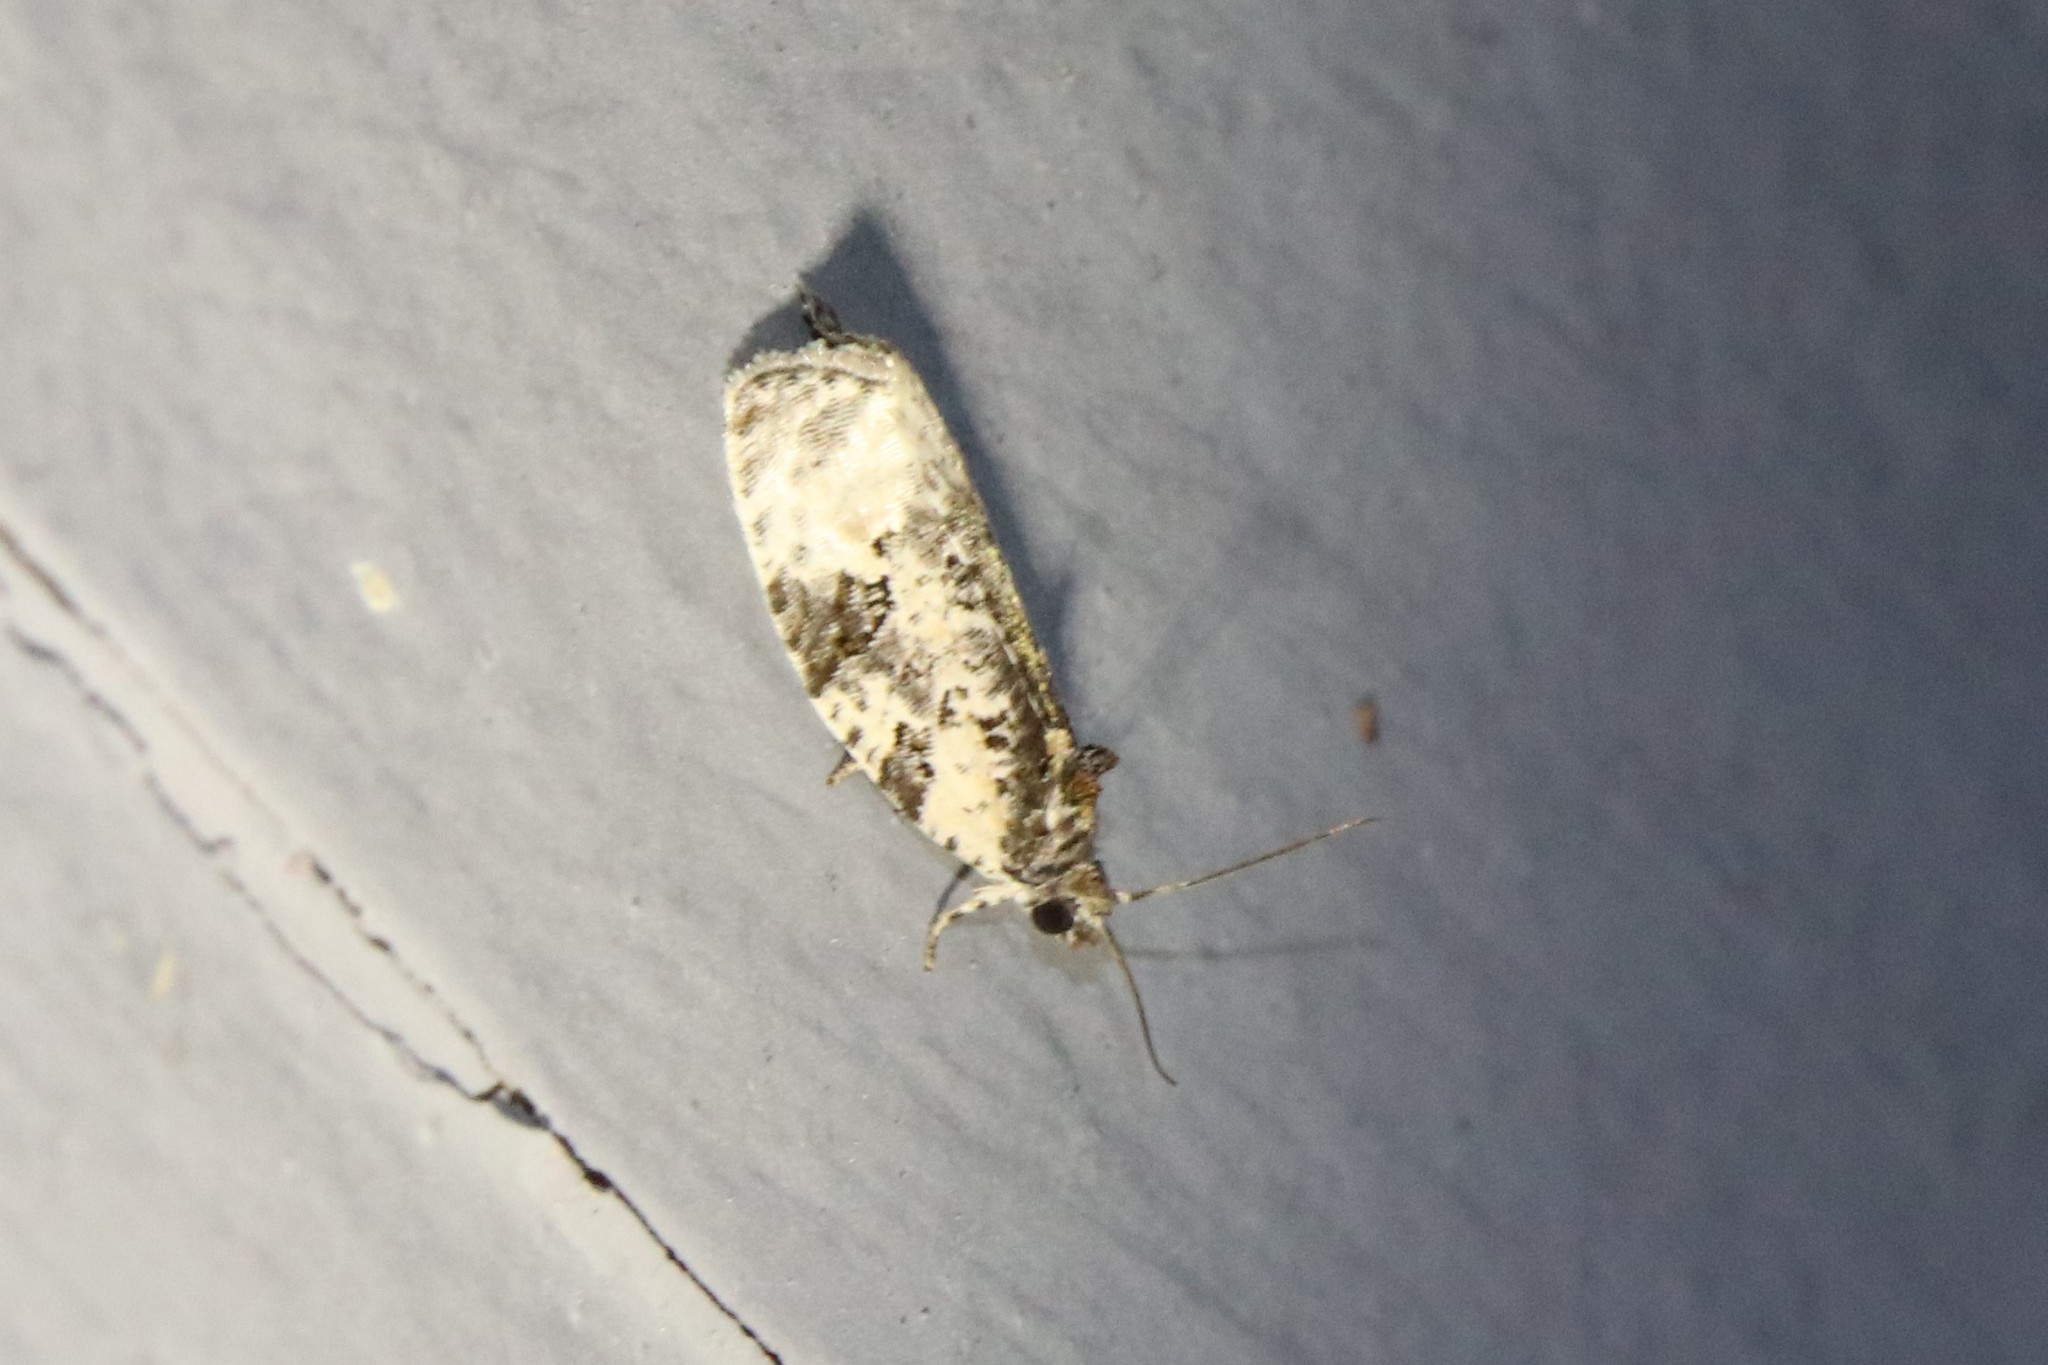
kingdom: Animalia
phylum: Arthropoda
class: Insecta
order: Lepidoptera
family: Tortricidae
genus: Apotomis
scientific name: Apotomis albeolana
